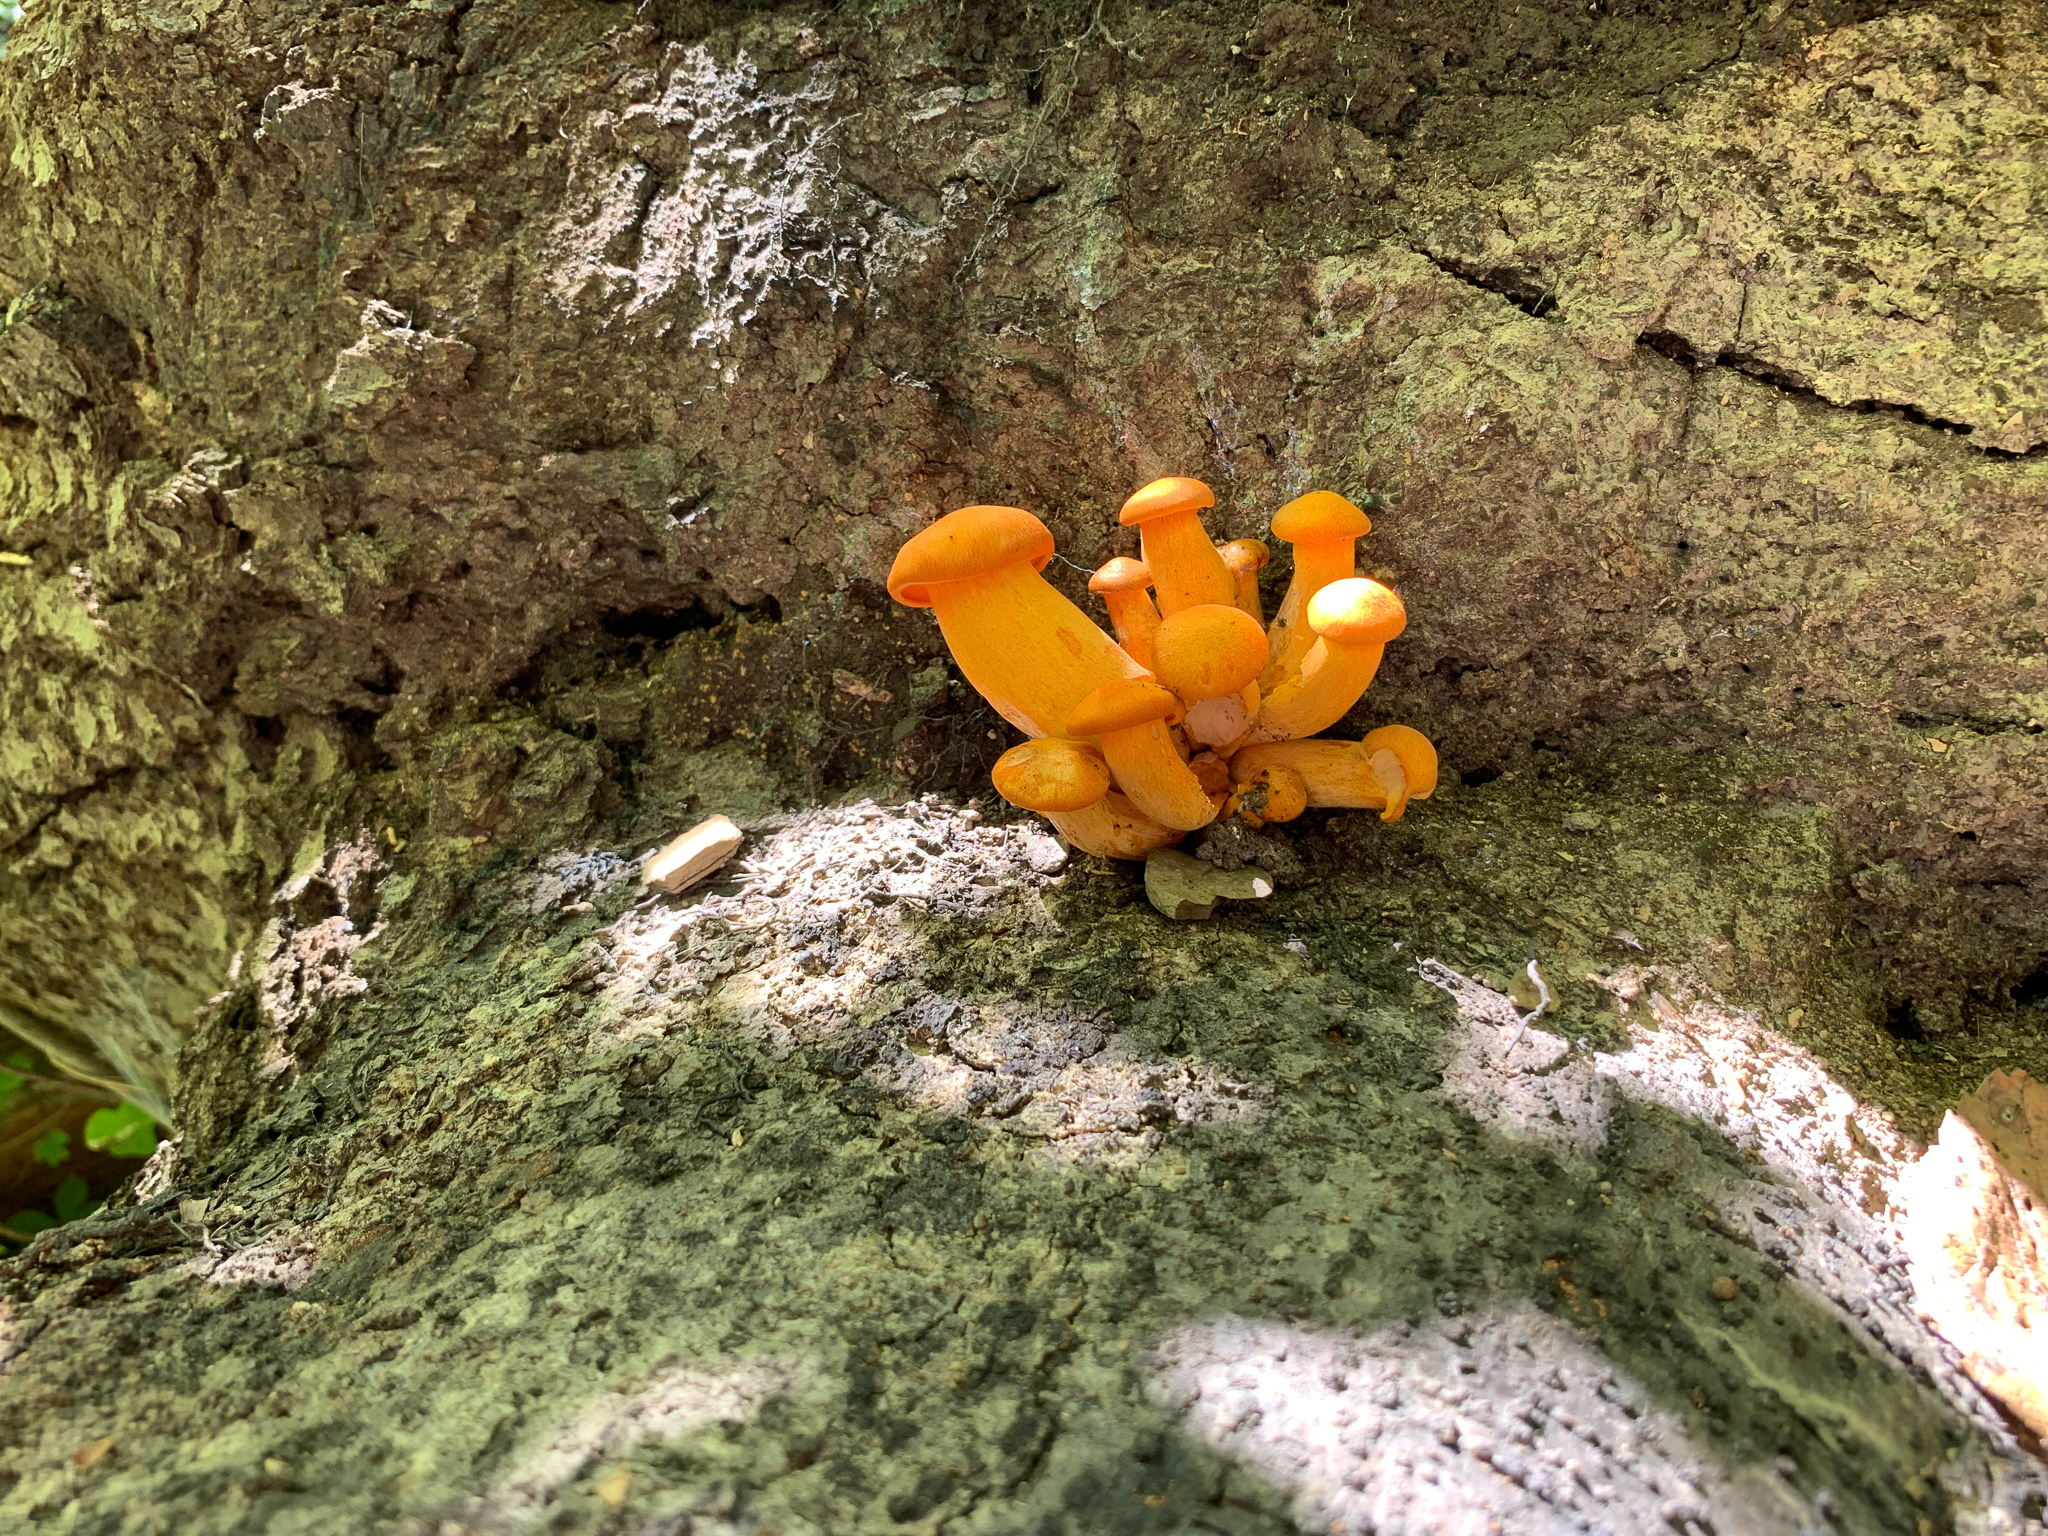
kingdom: Fungi
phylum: Basidiomycota
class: Agaricomycetes
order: Agaricales
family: Omphalotaceae
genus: Omphalotus
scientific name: Omphalotus illudens
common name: Jack o lantern
